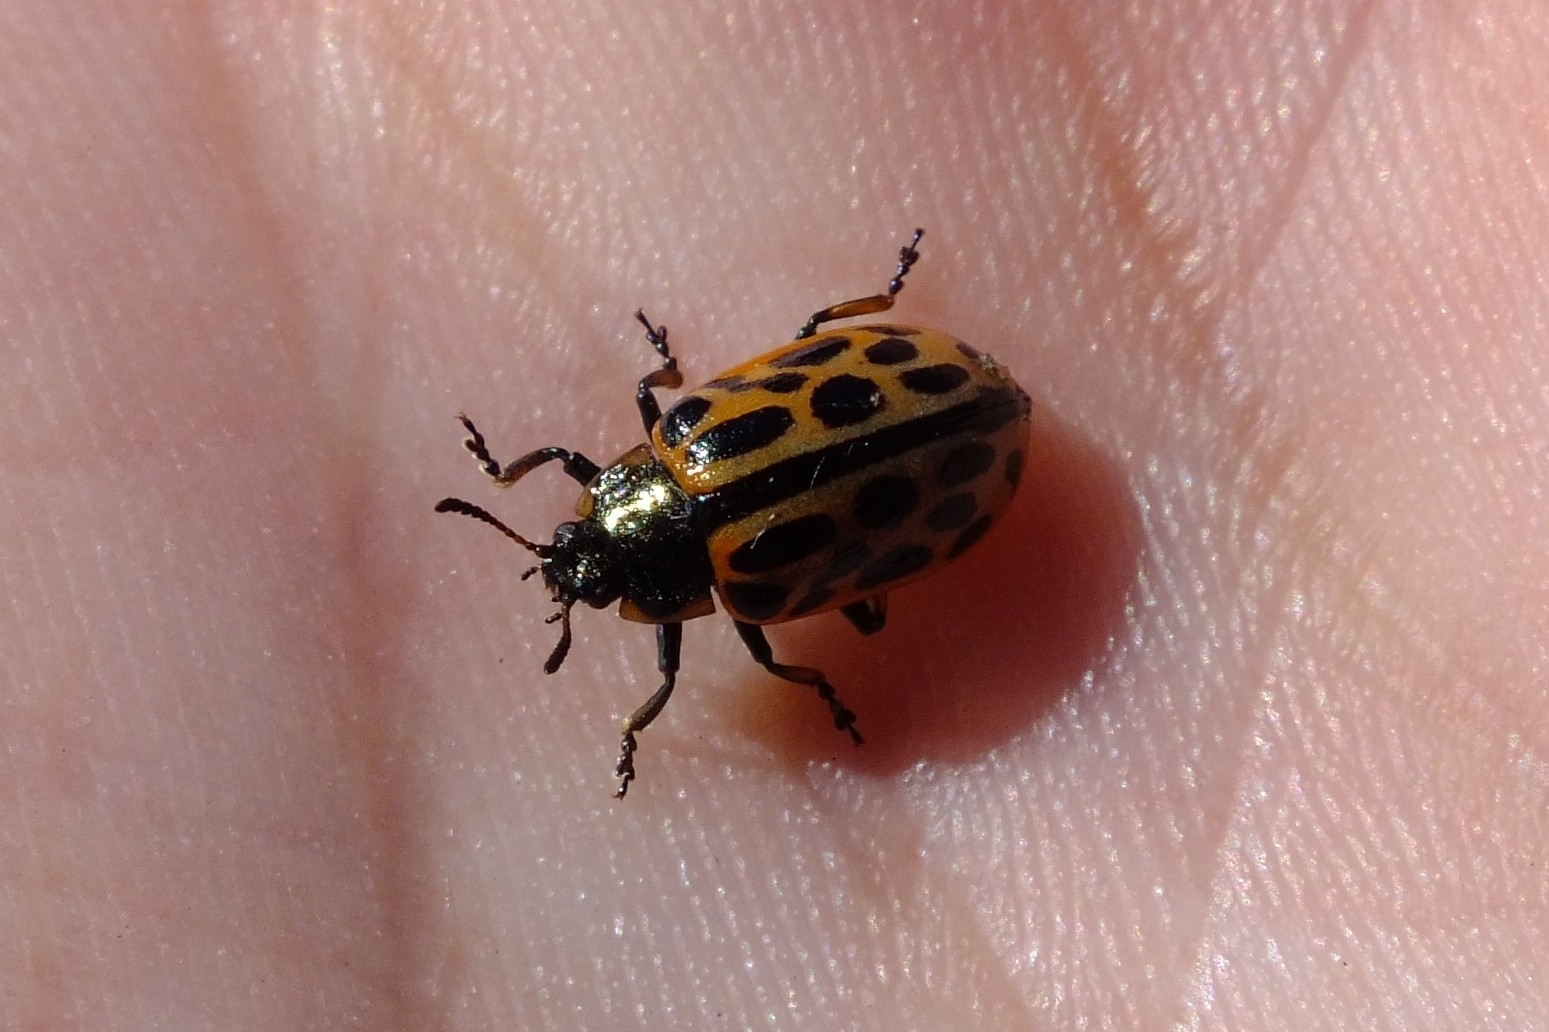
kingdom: Animalia
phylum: Arthropoda
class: Insecta
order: Coleoptera
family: Chrysomelidae
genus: Chrysomela
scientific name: Chrysomela vigintipunctata
